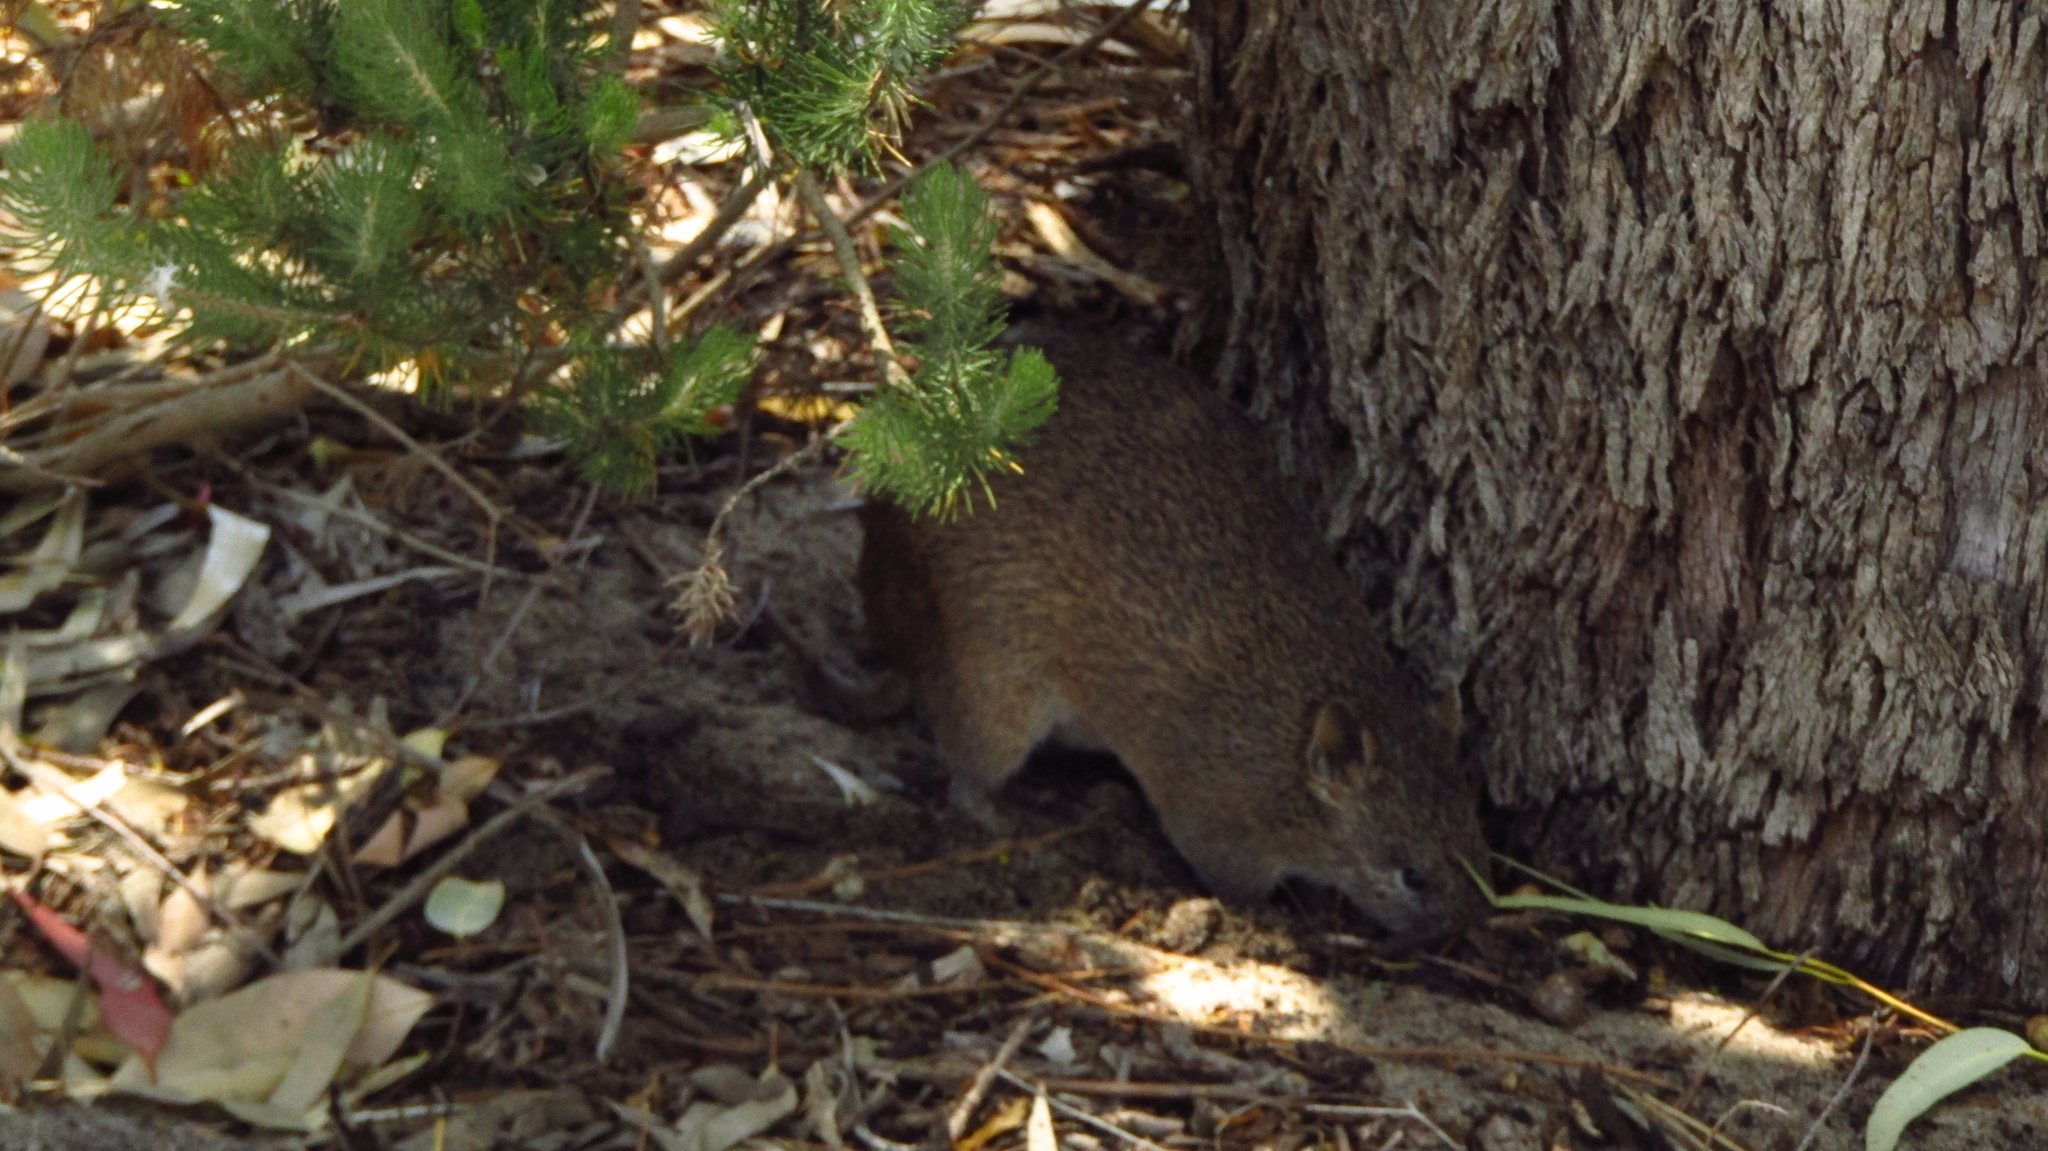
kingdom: Animalia
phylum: Chordata
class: Mammalia
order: Peramelemorphia
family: Peramelidae
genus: Isoodon
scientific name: Isoodon fusciventer
